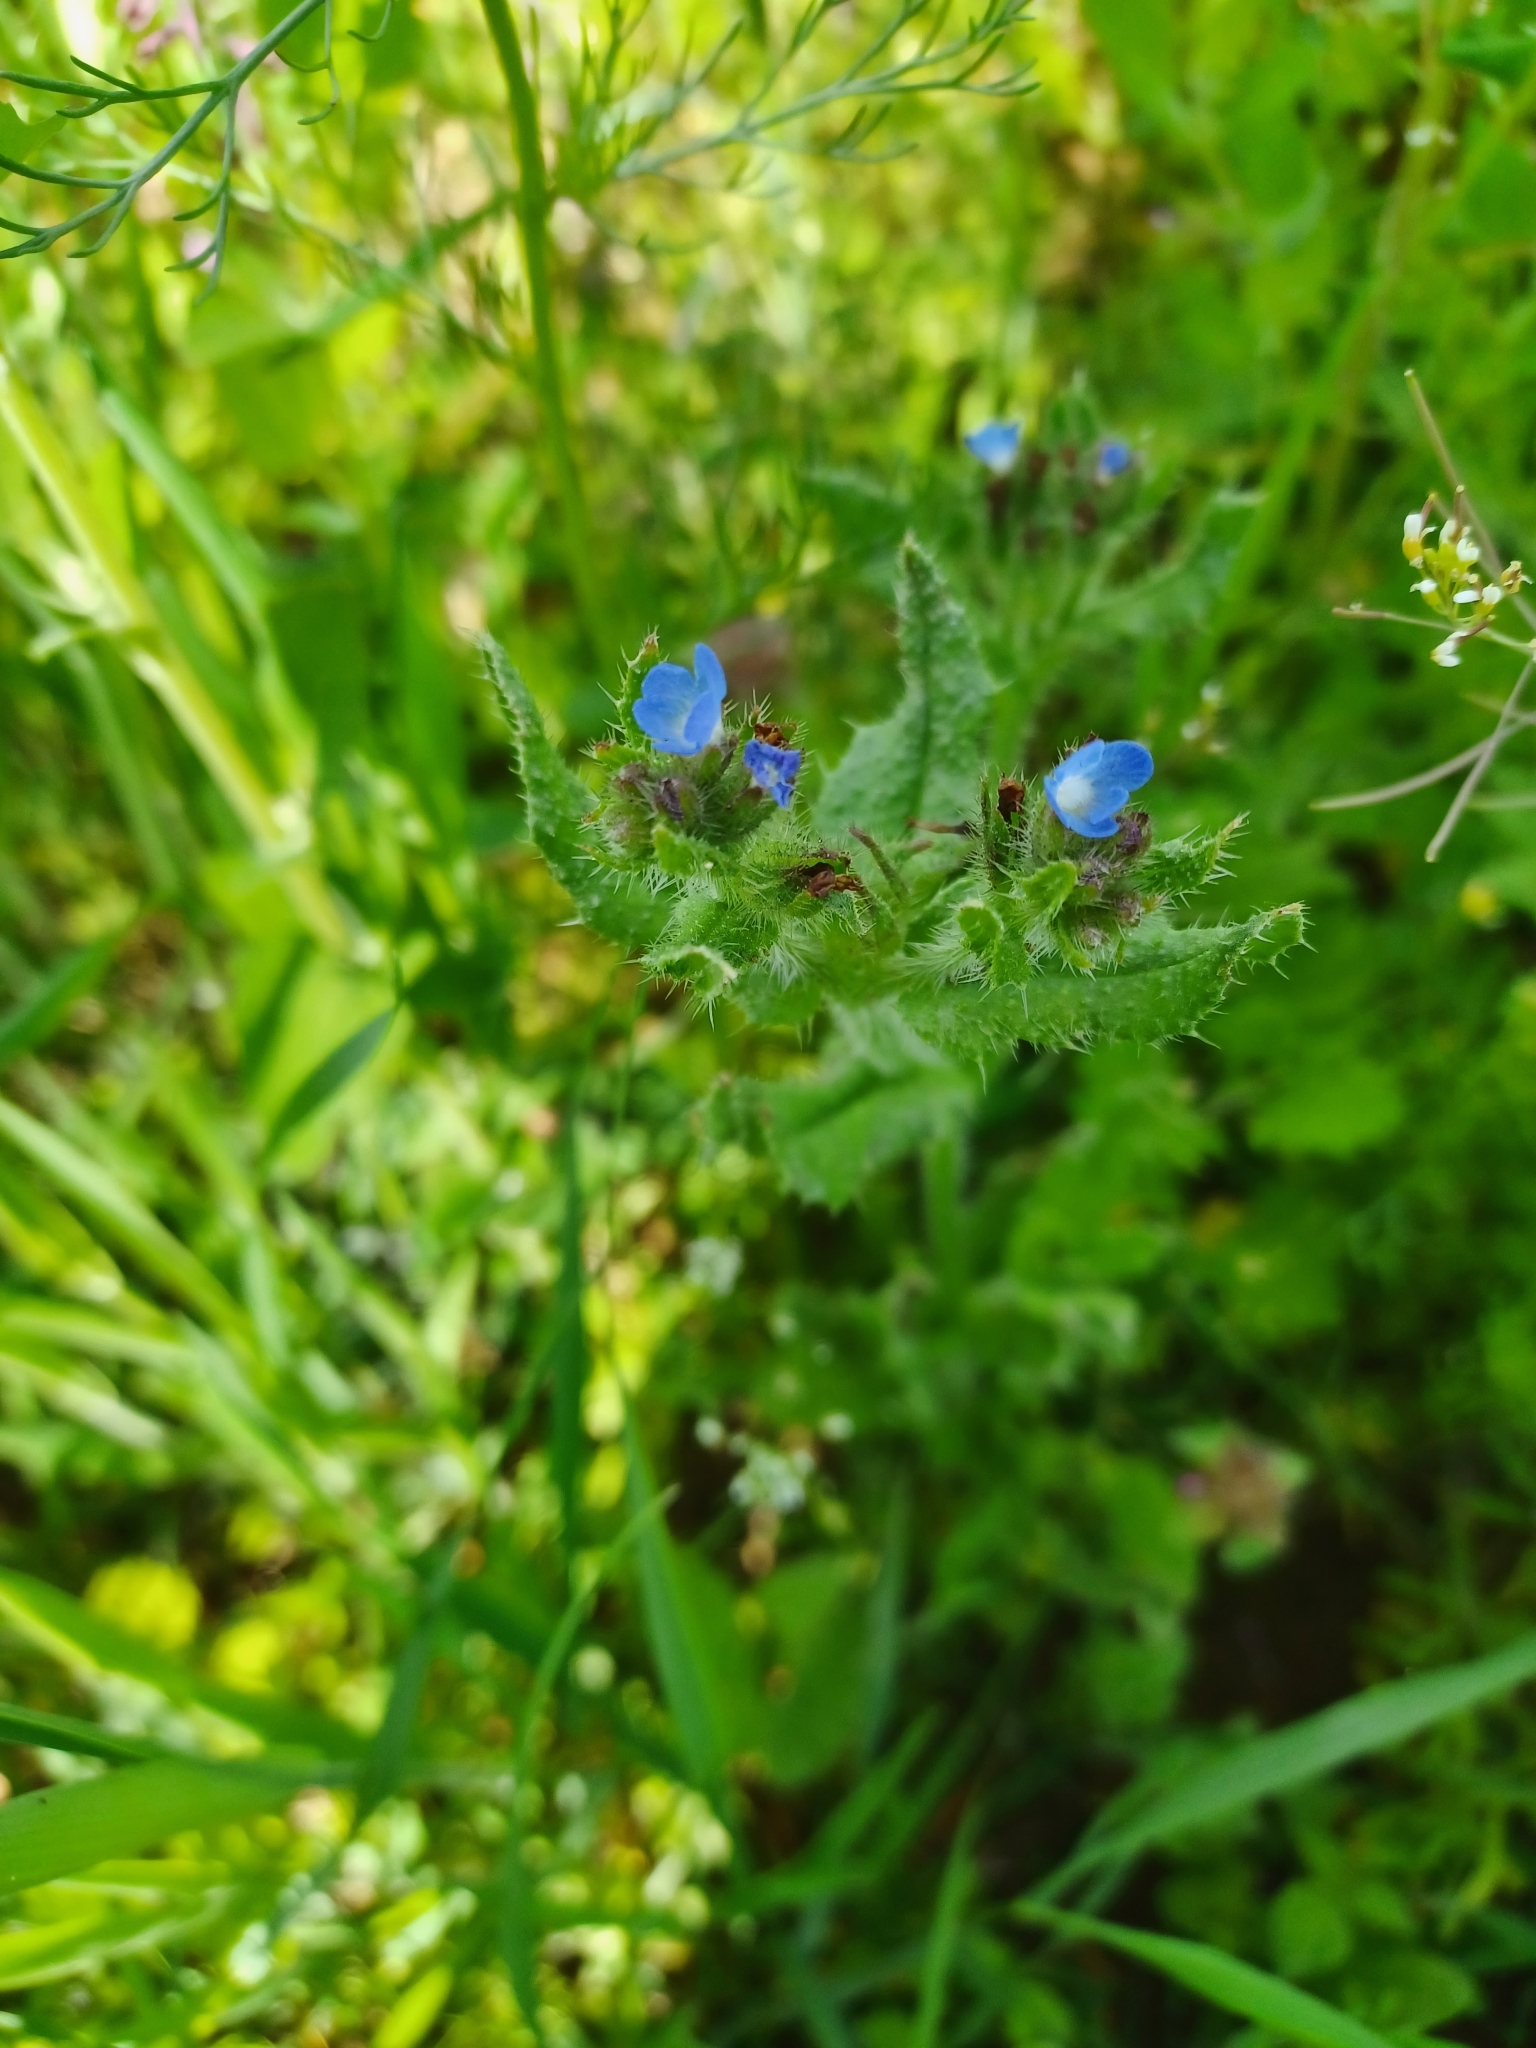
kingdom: Plantae
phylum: Tracheophyta
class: Magnoliopsida
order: Boraginales
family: Boraginaceae
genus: Lycopsis
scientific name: Lycopsis arvensis
